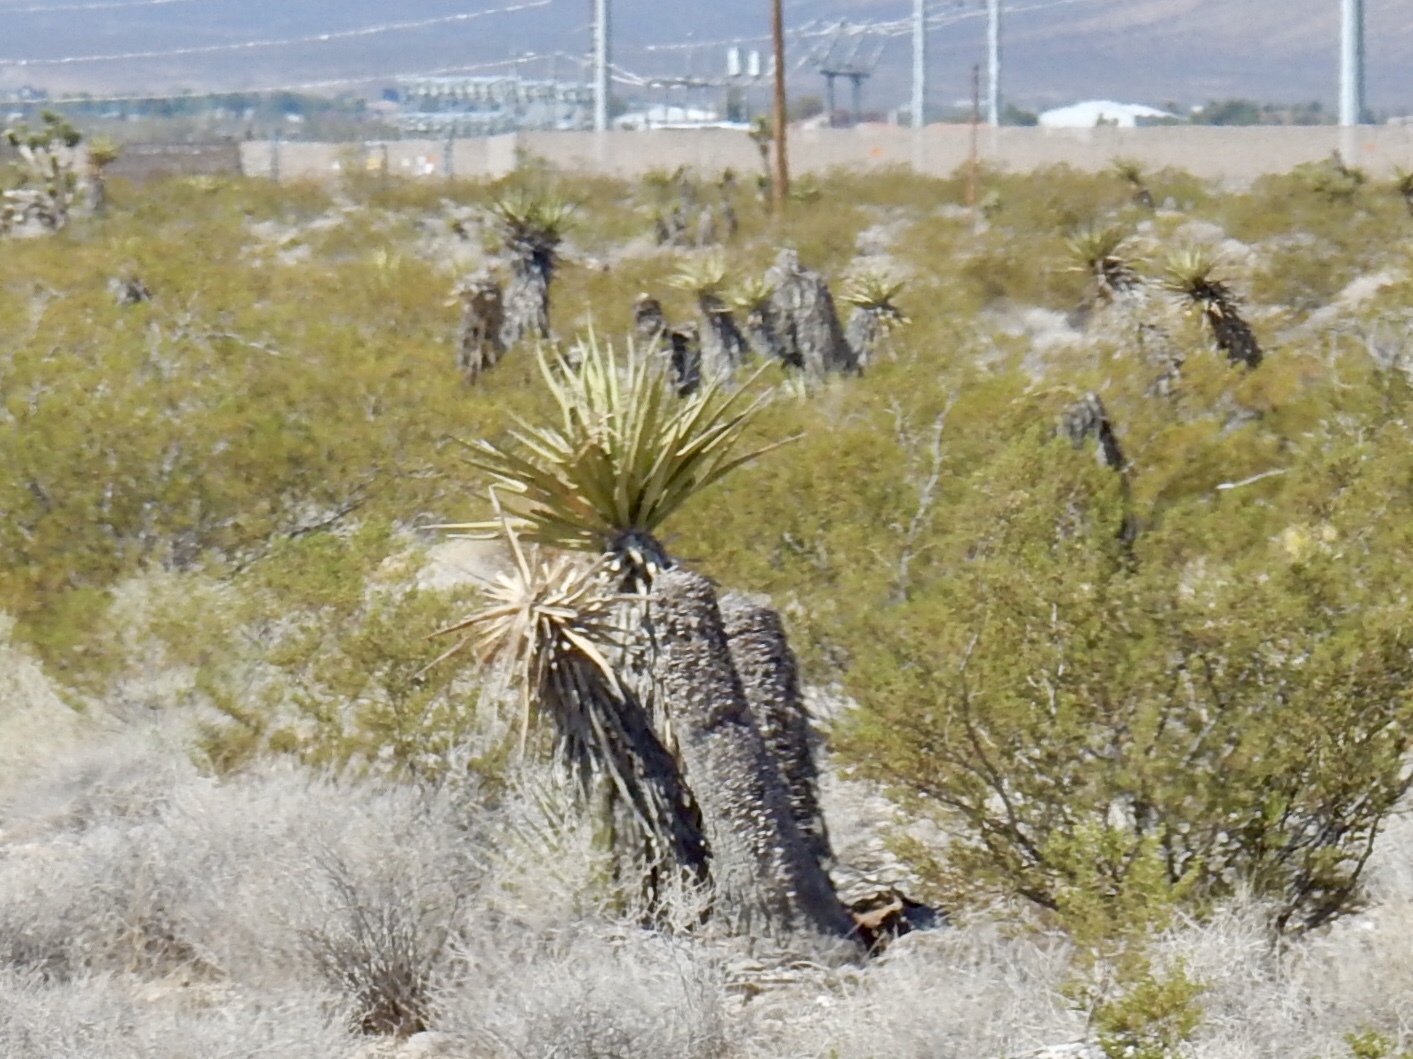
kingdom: Plantae
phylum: Tracheophyta
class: Liliopsida
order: Asparagales
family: Asparagaceae
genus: Yucca
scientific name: Yucca schidigera
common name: Mojave yucca
